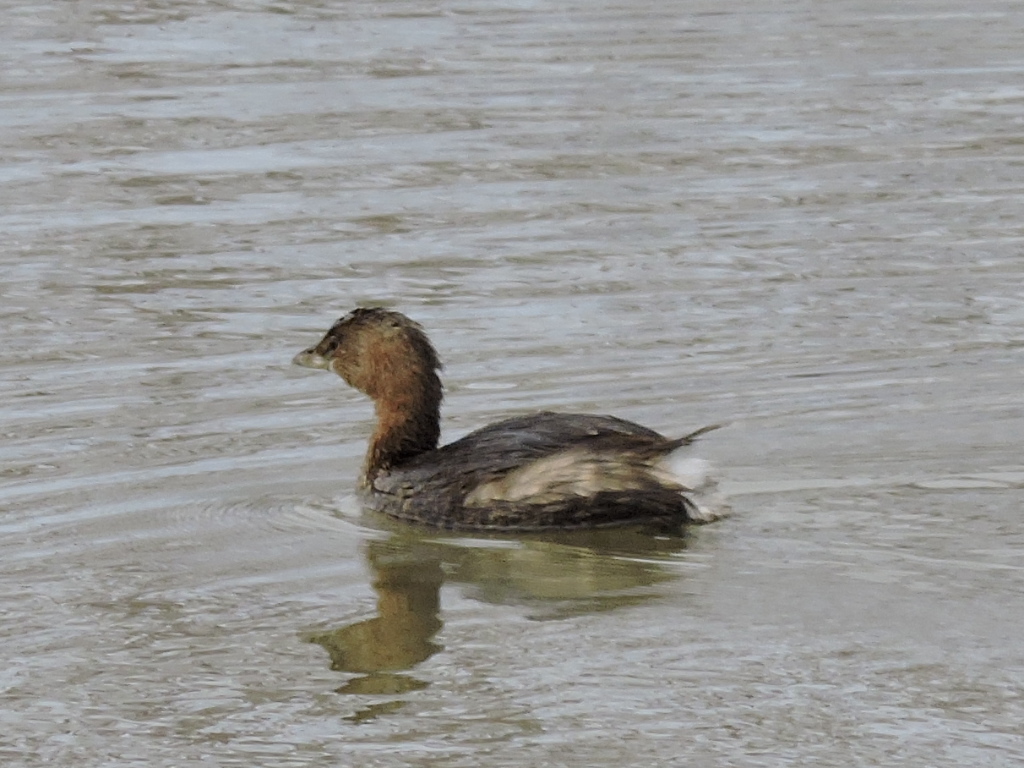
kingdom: Animalia
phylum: Chordata
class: Aves
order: Podicipediformes
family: Podicipedidae
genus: Podilymbus
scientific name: Podilymbus podiceps
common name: Pied-billed grebe
